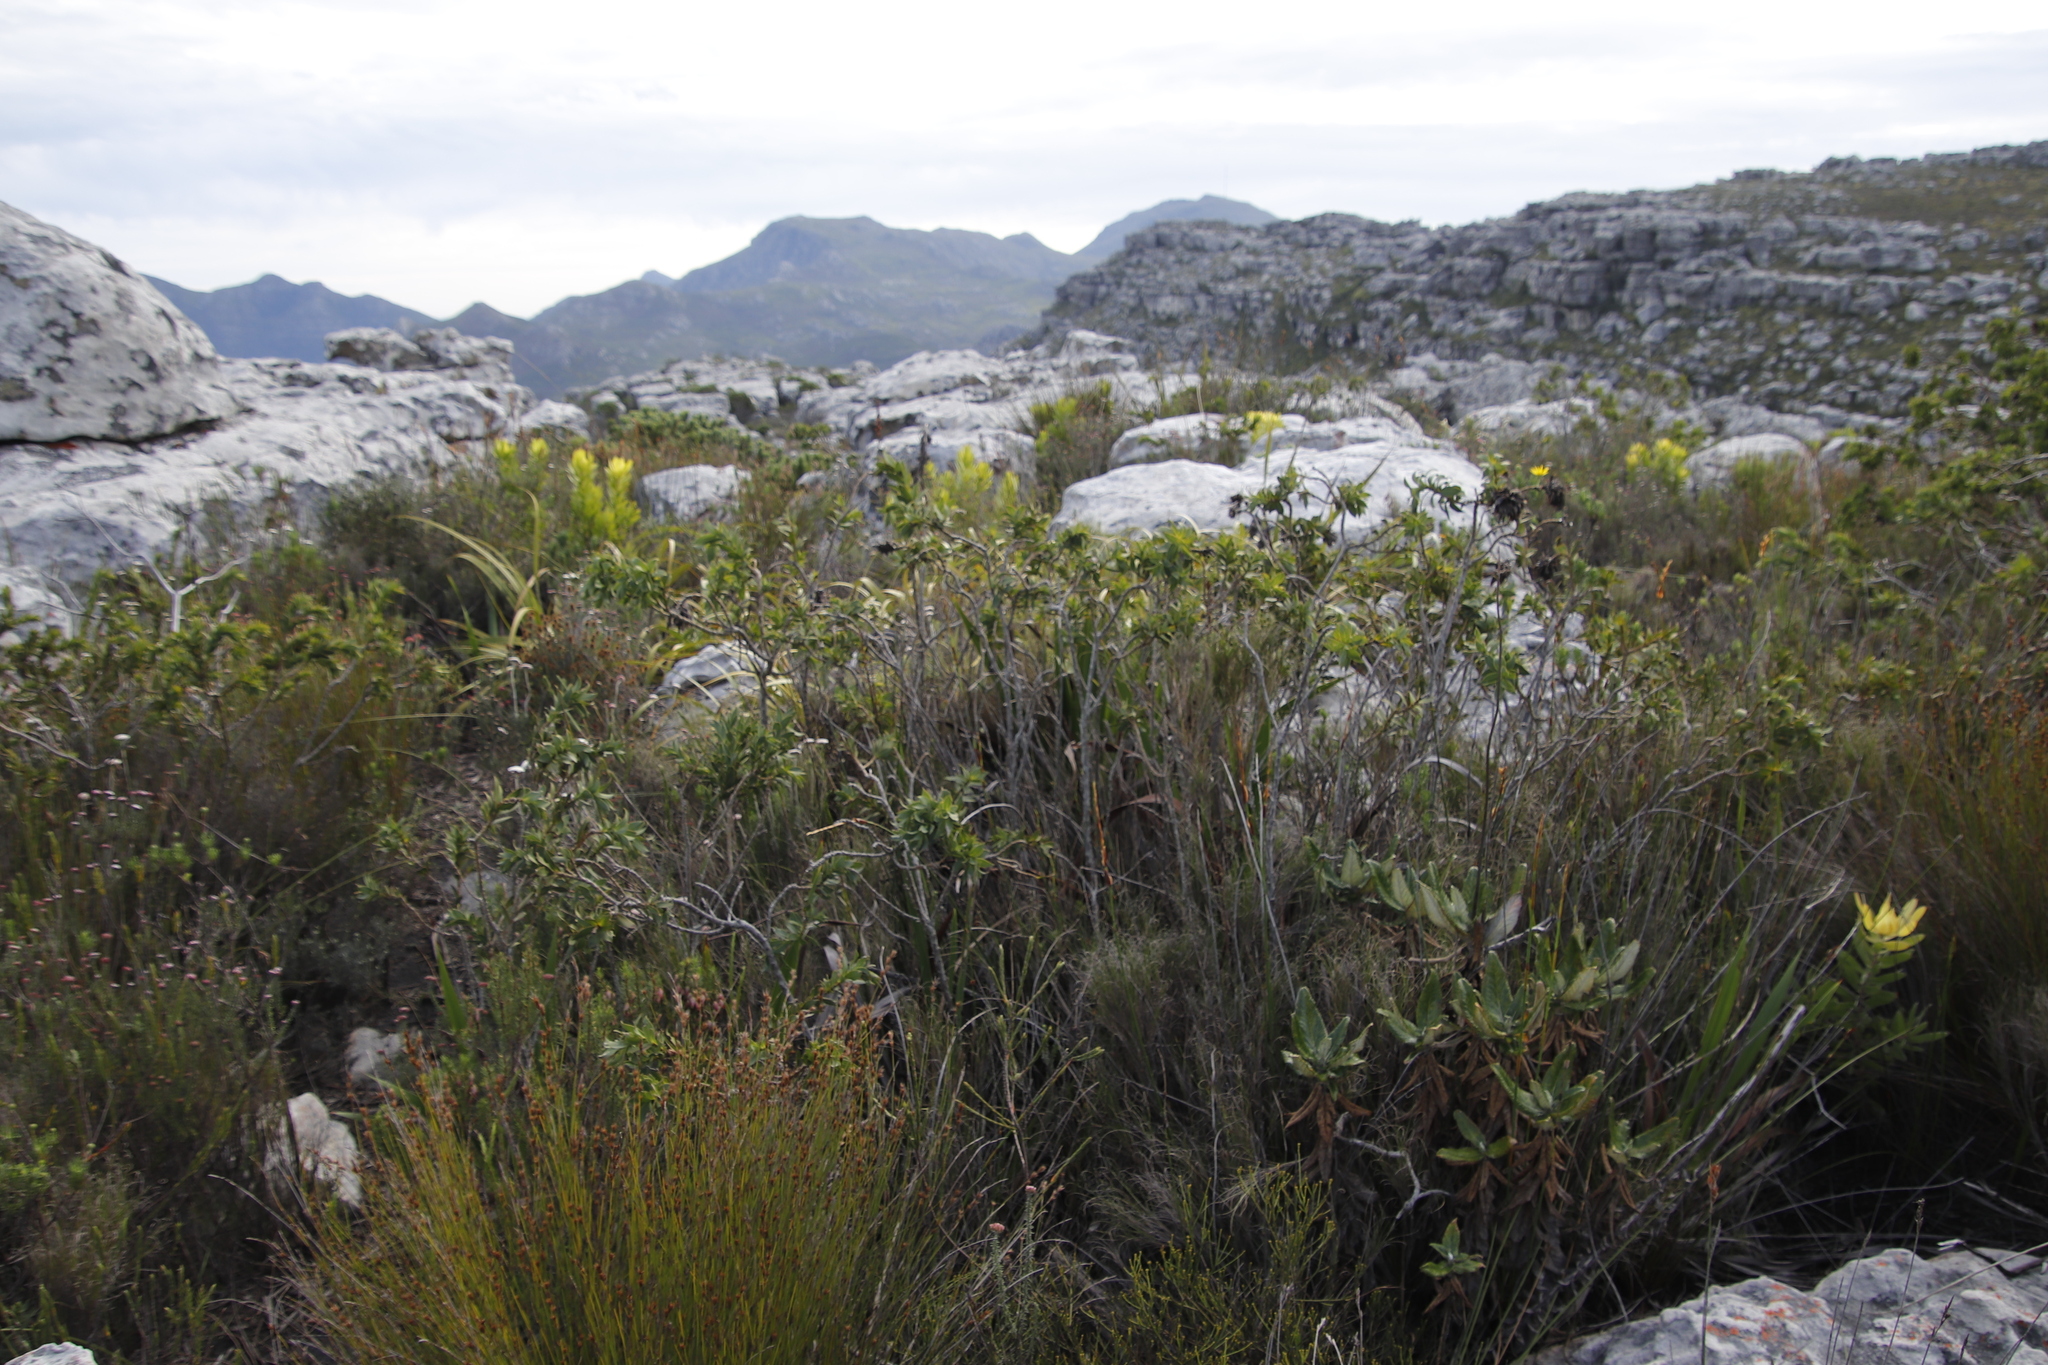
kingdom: Plantae
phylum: Tracheophyta
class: Magnoliopsida
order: Fabales
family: Fabaceae
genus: Liparia
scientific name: Liparia splendens
